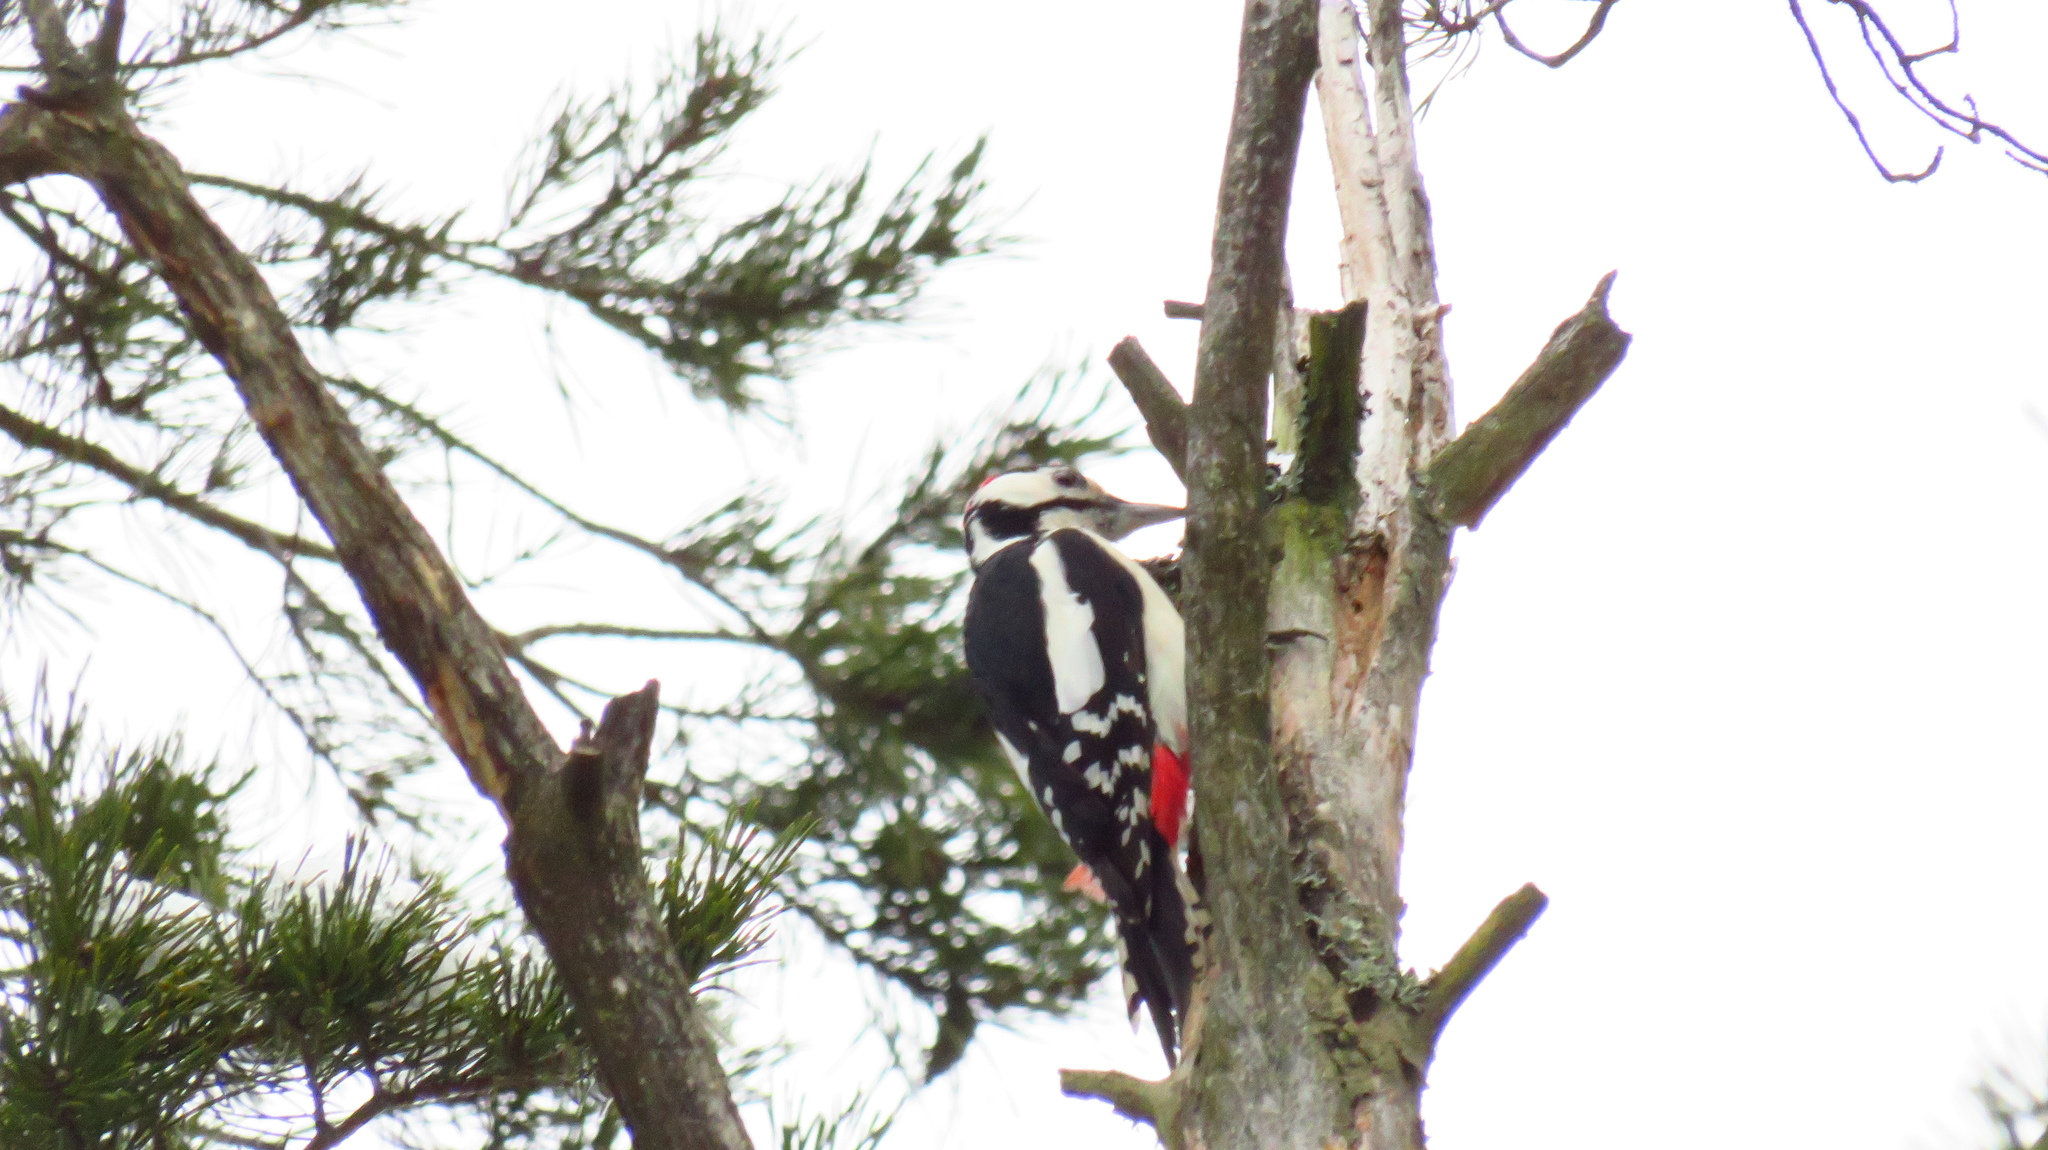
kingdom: Animalia
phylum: Chordata
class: Aves
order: Piciformes
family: Picidae
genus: Dendrocopos
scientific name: Dendrocopos major
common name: Great spotted woodpecker
